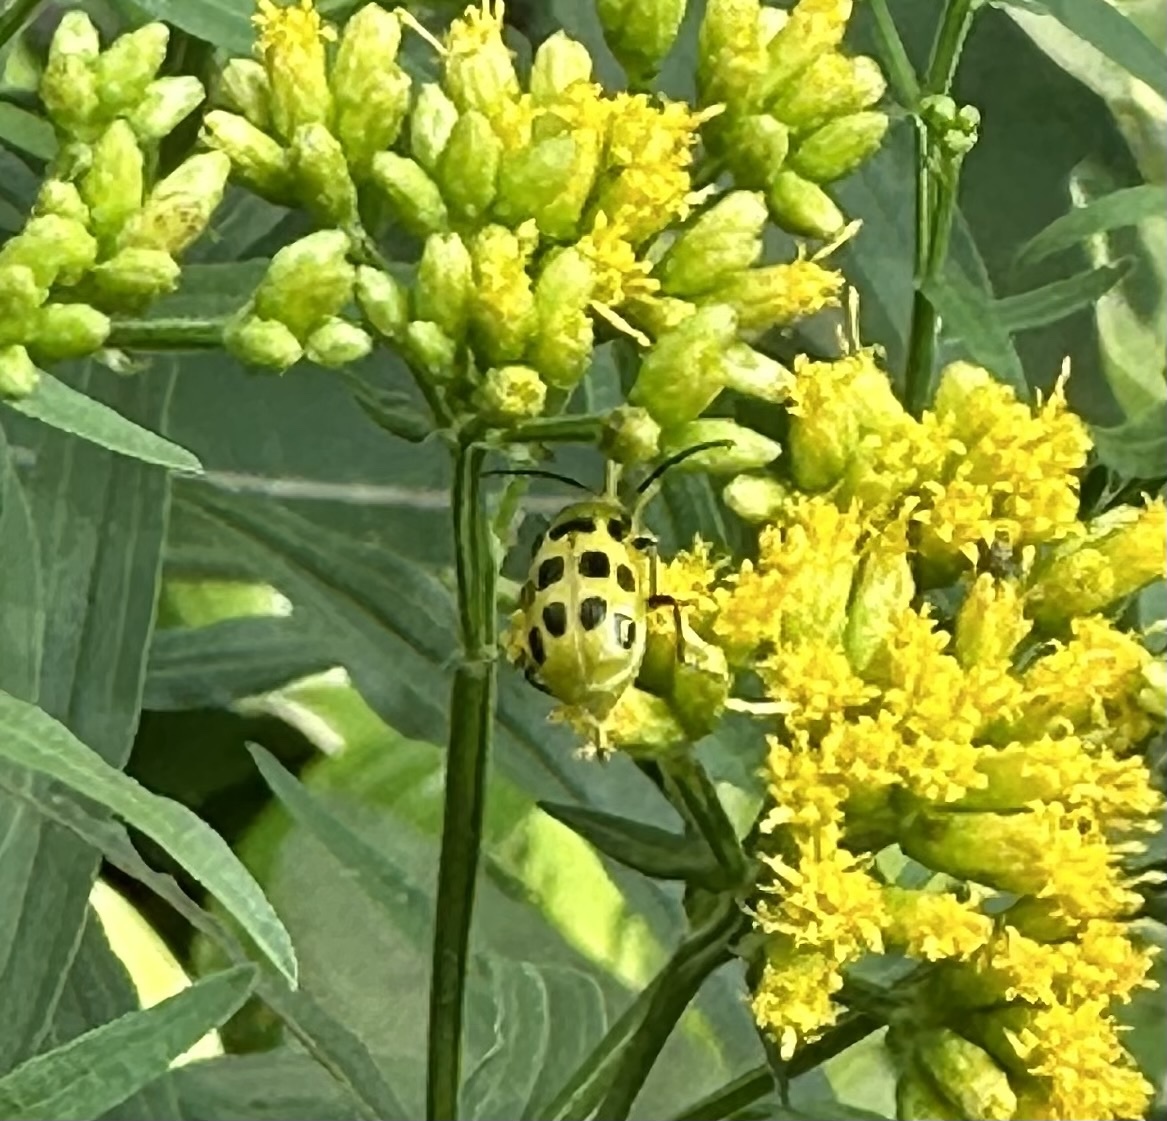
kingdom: Animalia
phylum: Arthropoda
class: Insecta
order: Coleoptera
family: Chrysomelidae
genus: Diabrotica
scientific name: Diabrotica undecimpunctata
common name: Spotted cucumber beetle
